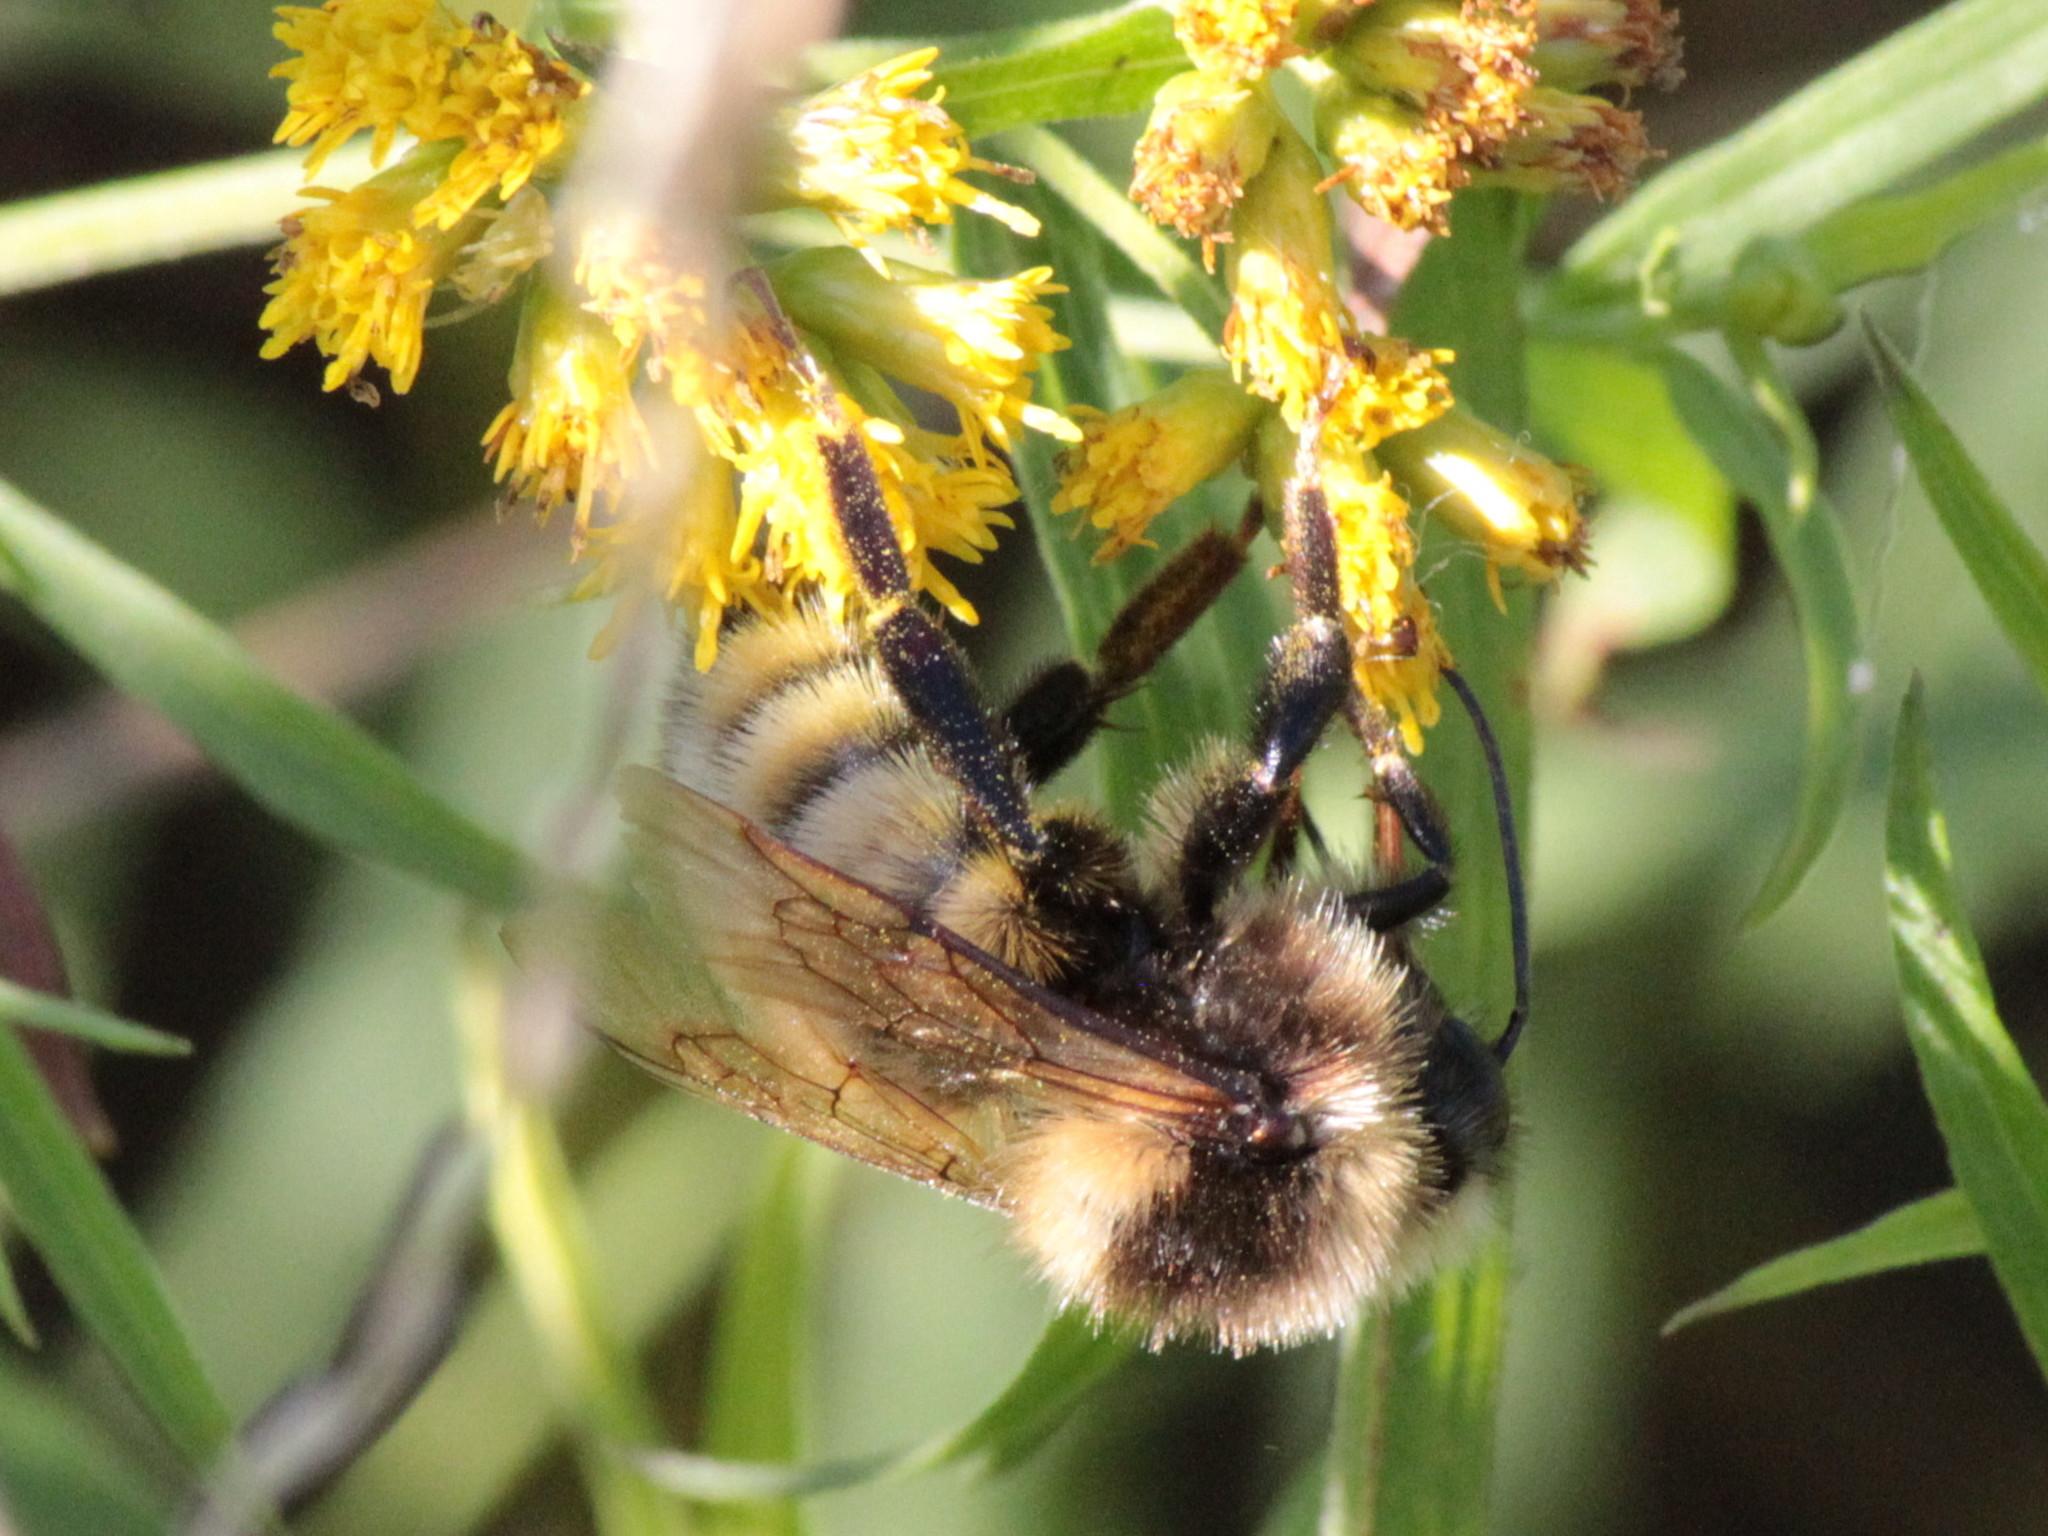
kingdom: Animalia
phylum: Arthropoda
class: Insecta
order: Hymenoptera
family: Apidae
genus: Bombus
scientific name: Bombus borealis
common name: Northern amber bumble bee
